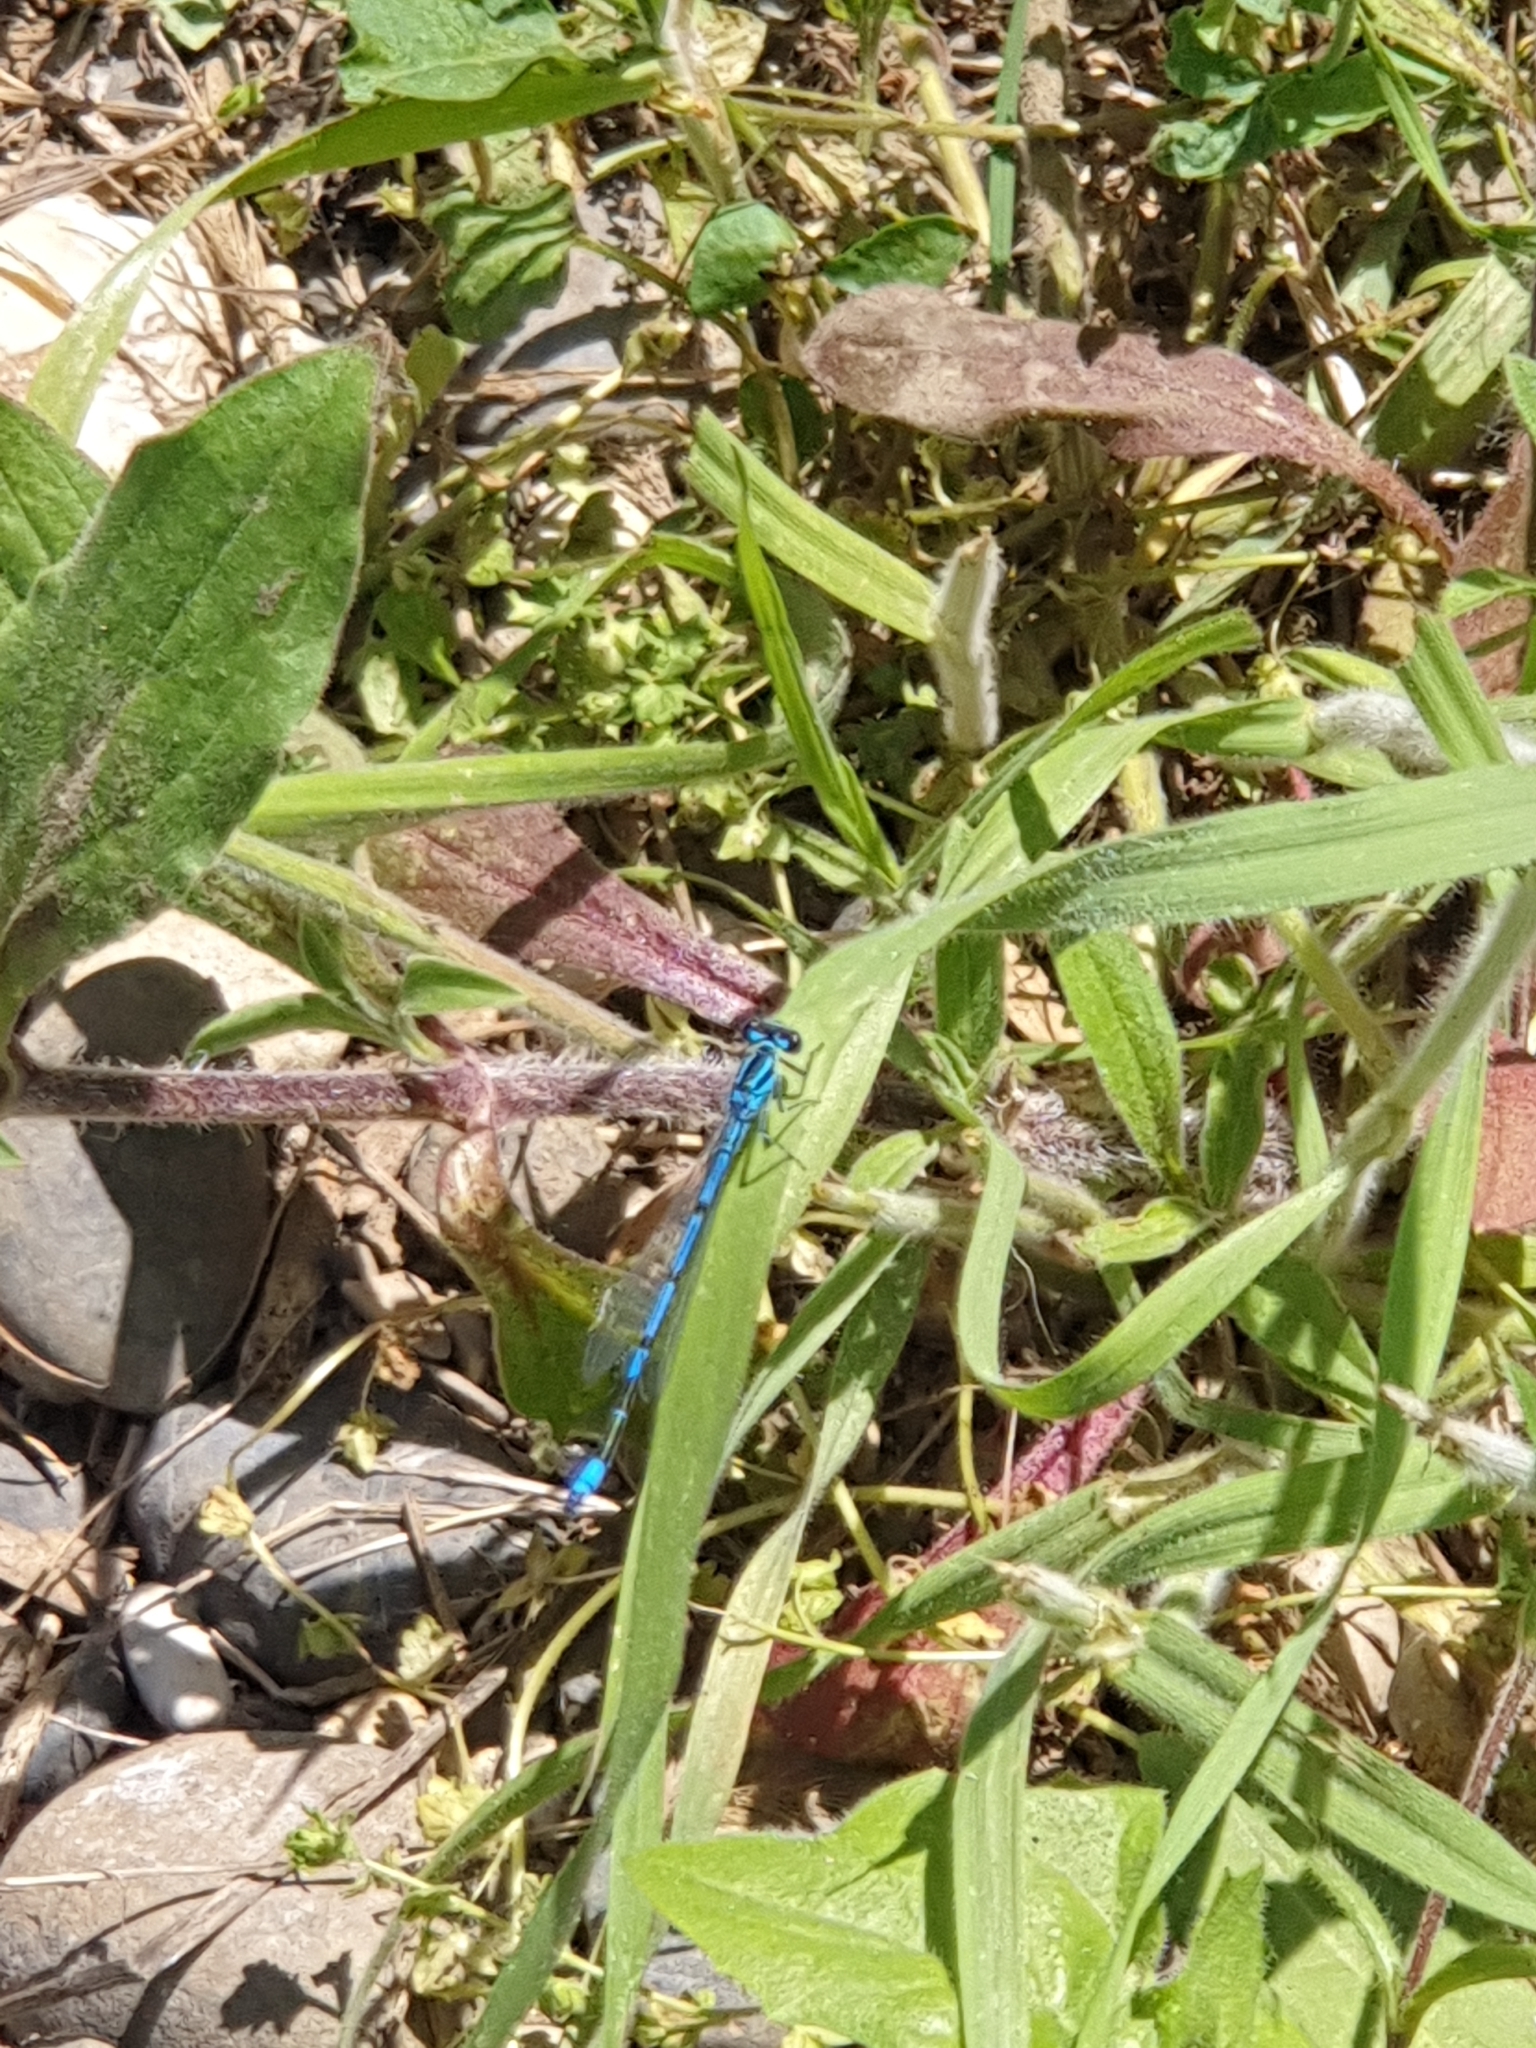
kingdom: Animalia
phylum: Arthropoda
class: Insecta
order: Odonata
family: Coenagrionidae
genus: Coenagrion
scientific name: Coenagrion puella
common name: Azure damselfly
